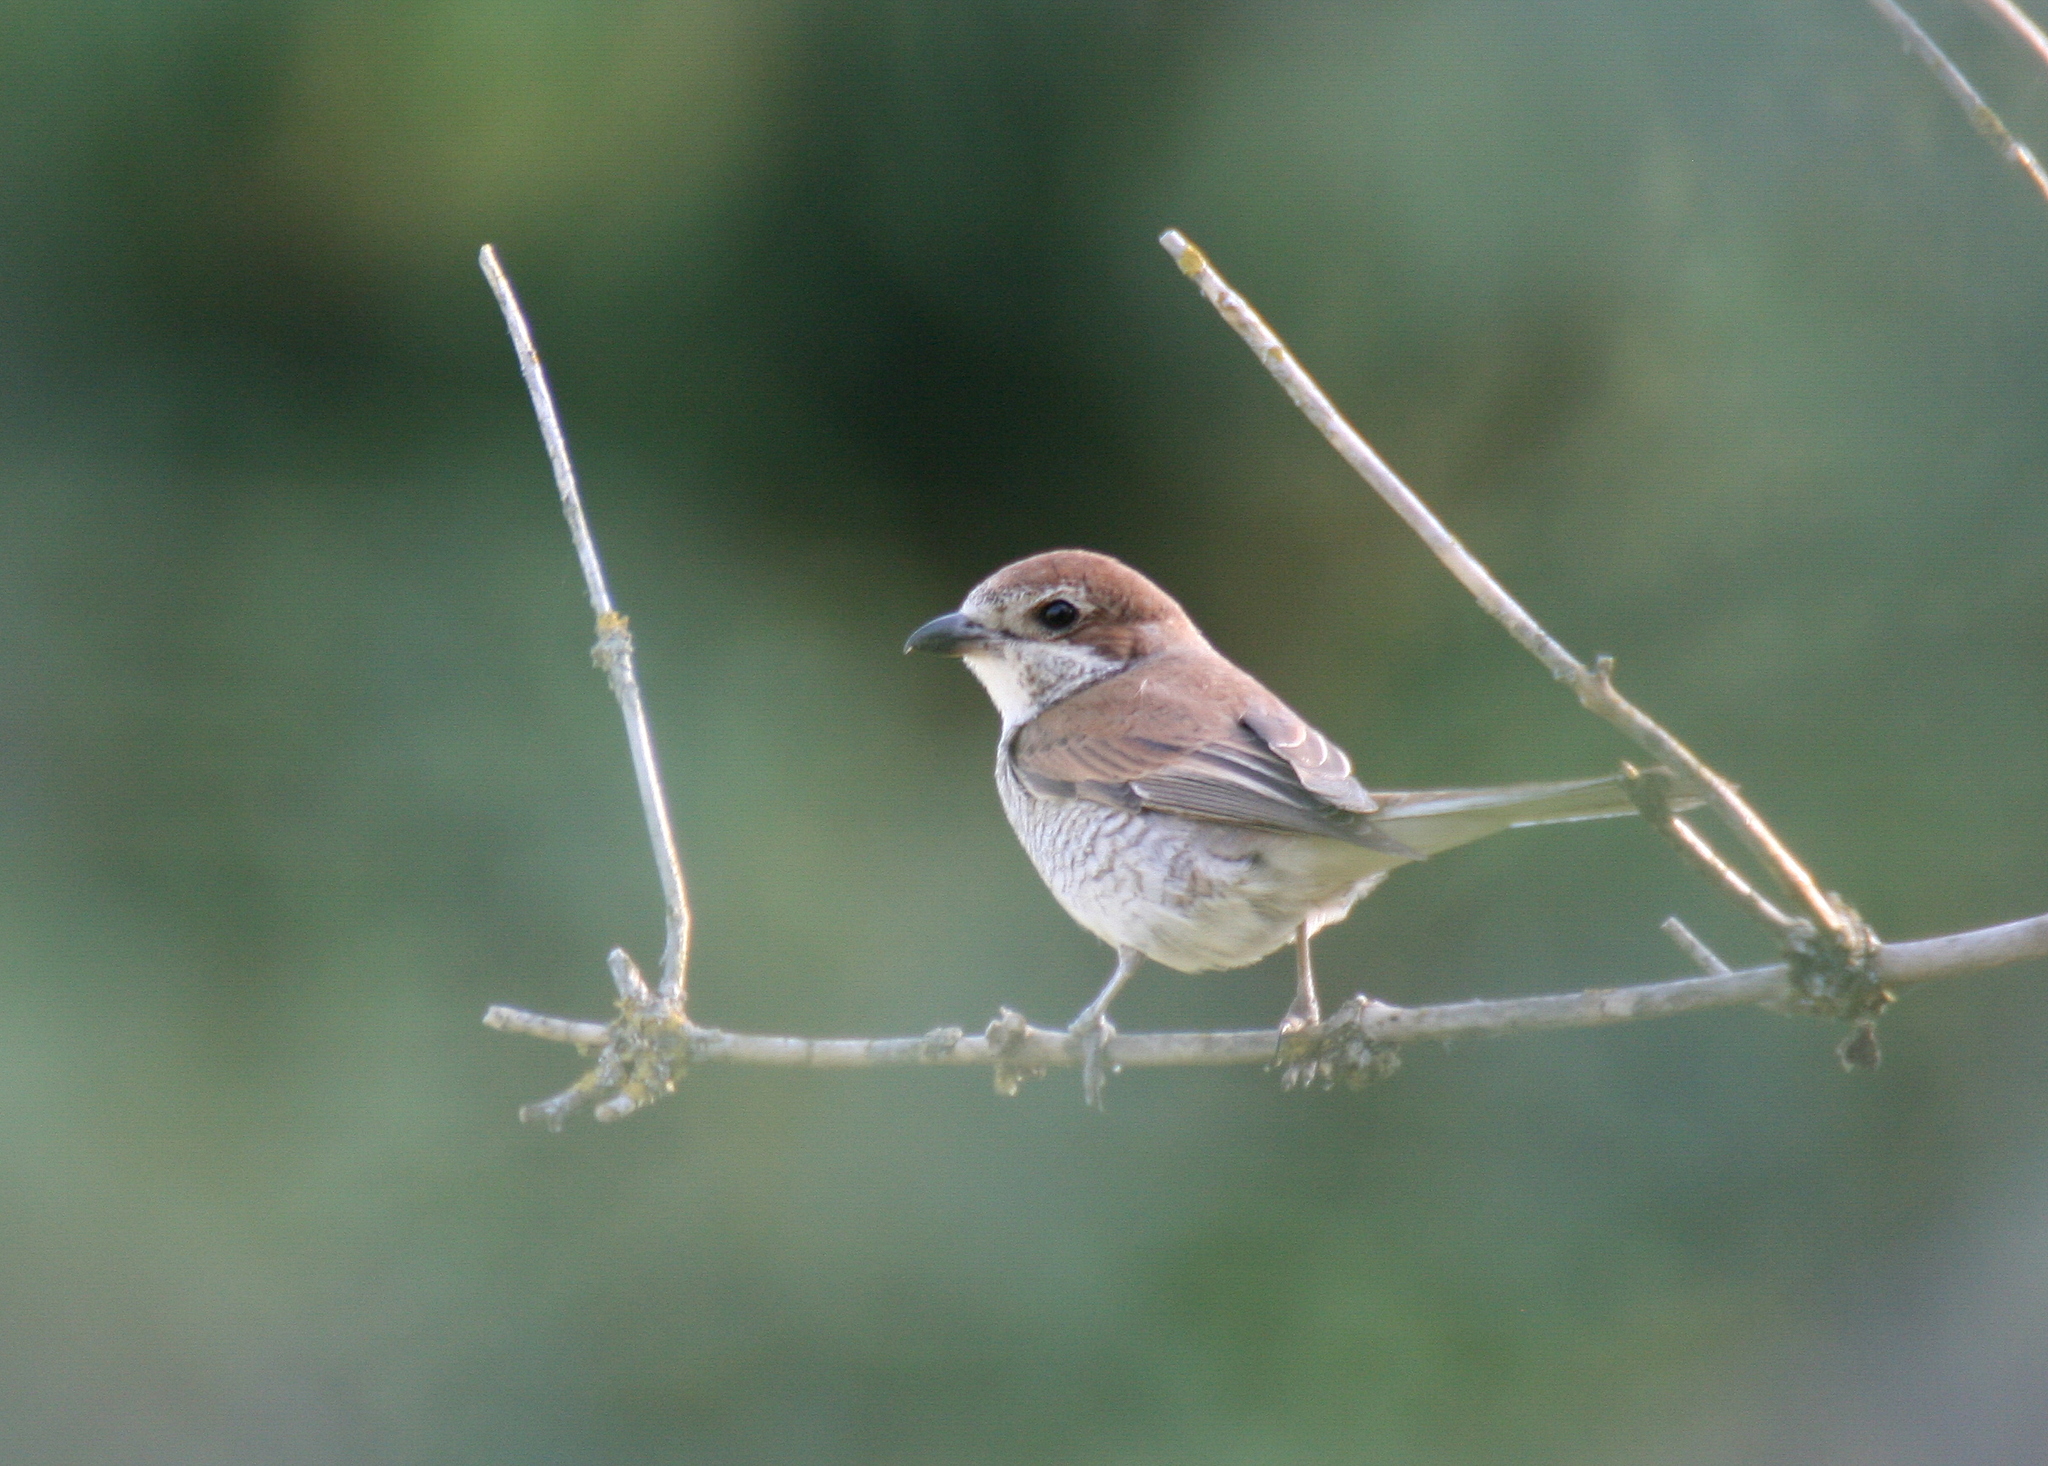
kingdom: Animalia
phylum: Chordata
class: Aves
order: Passeriformes
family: Laniidae
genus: Lanius
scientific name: Lanius collurio
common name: Red-backed shrike
